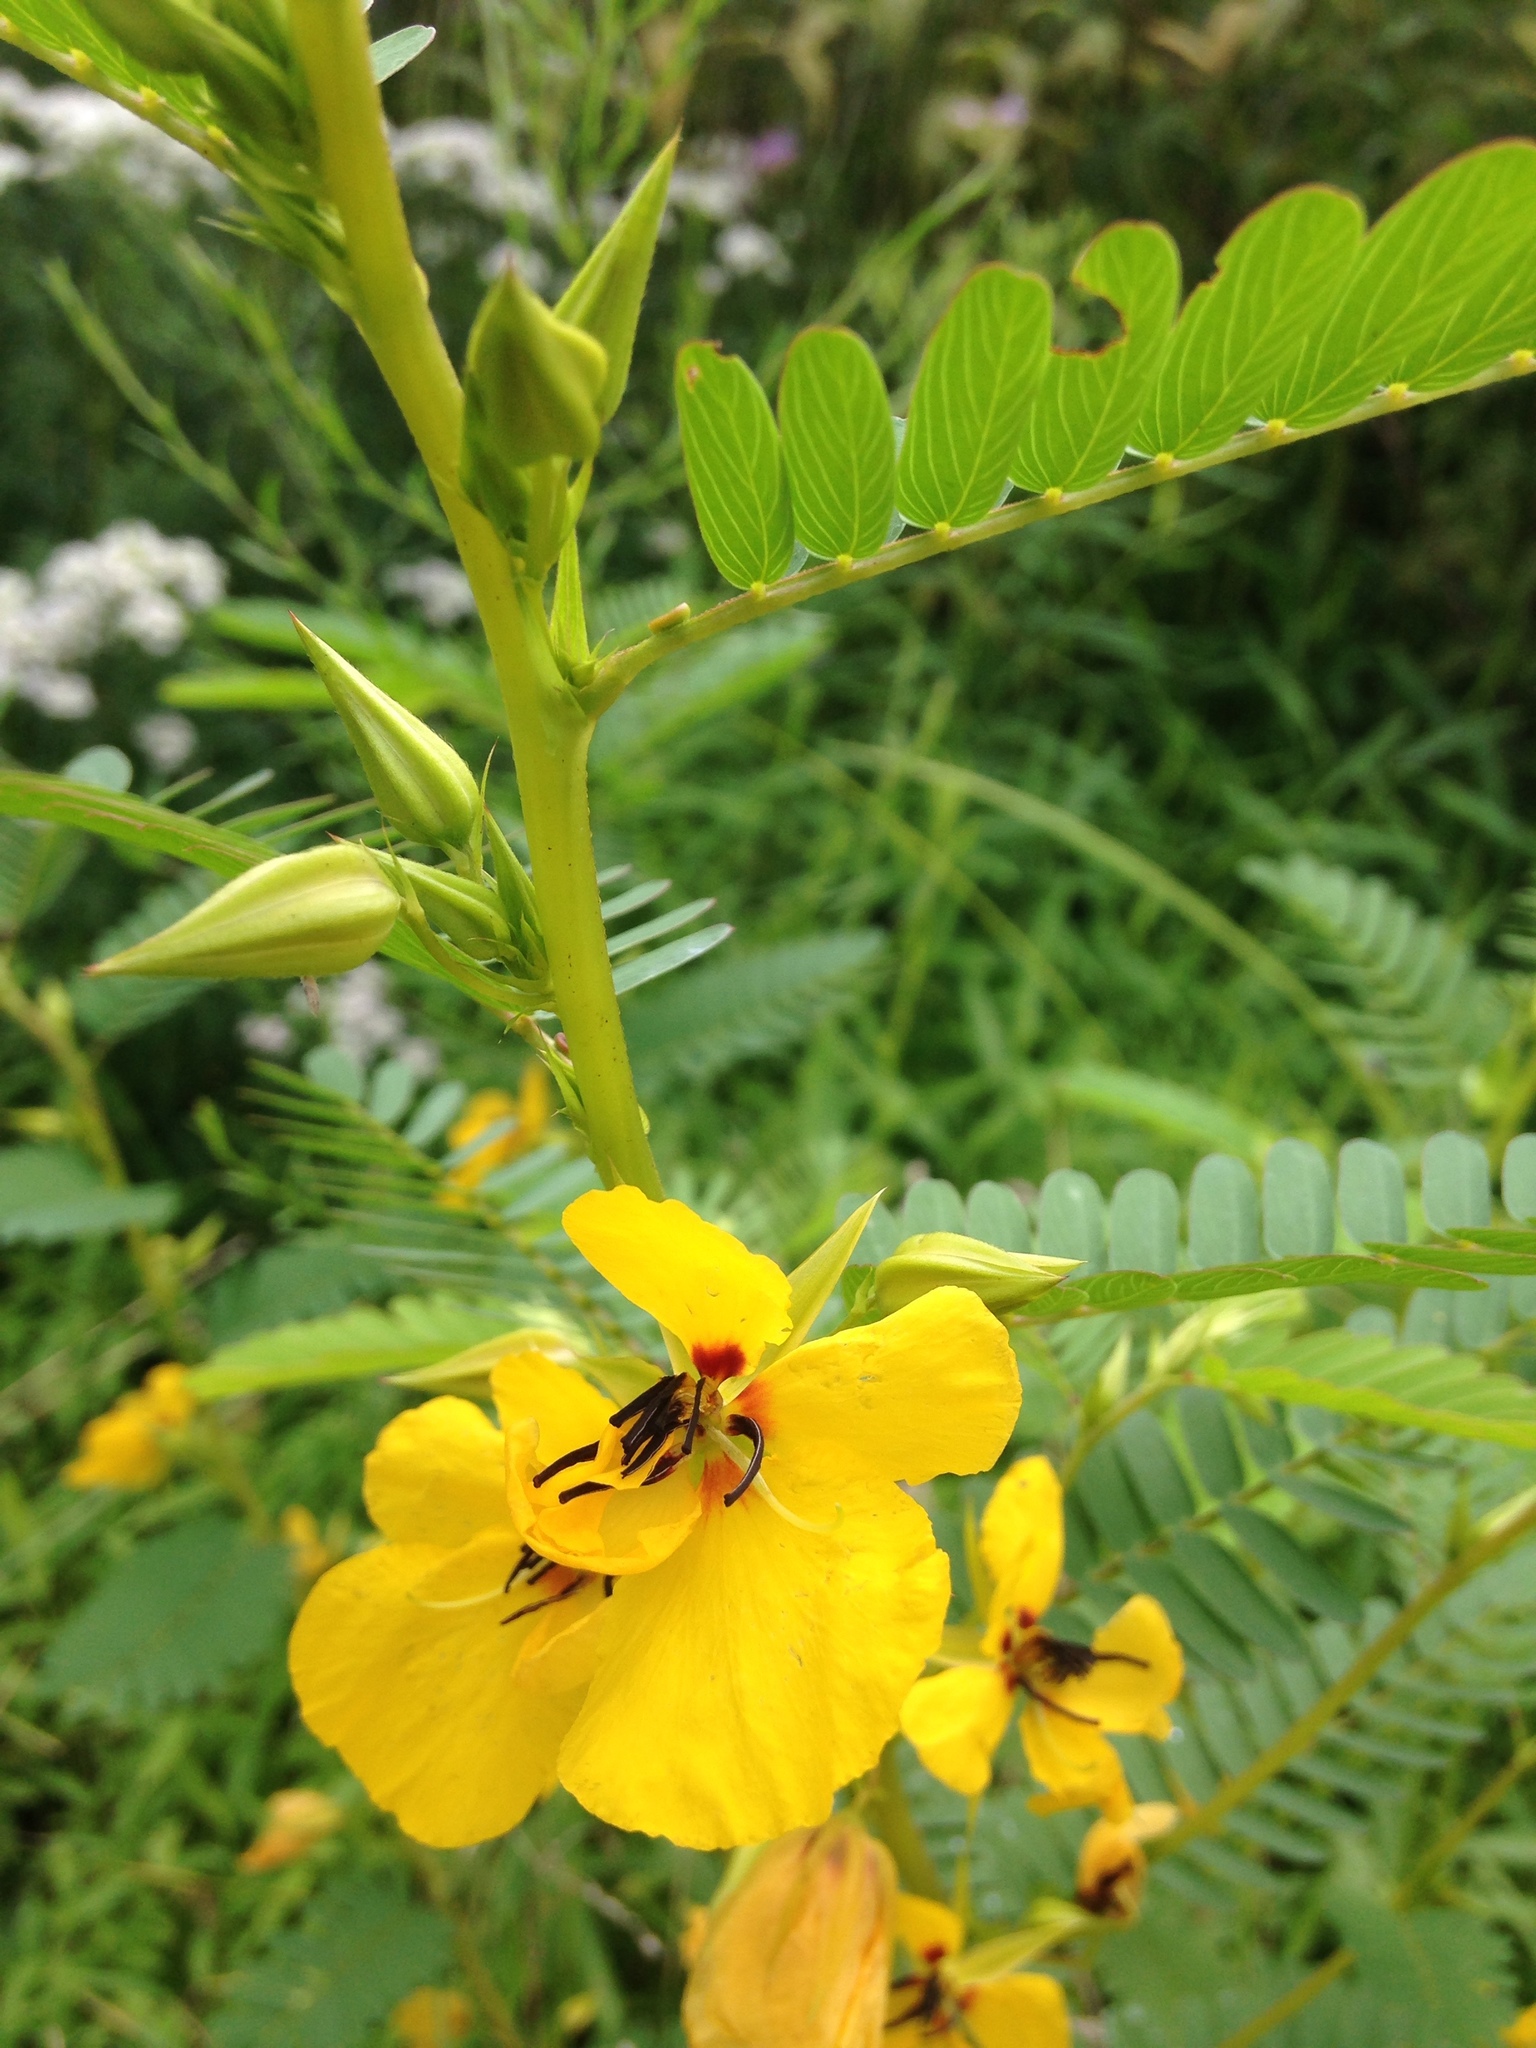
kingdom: Plantae
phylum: Tracheophyta
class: Magnoliopsida
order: Fabales
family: Fabaceae
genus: Chamaecrista
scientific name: Chamaecrista fasciculata
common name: Golden cassia
